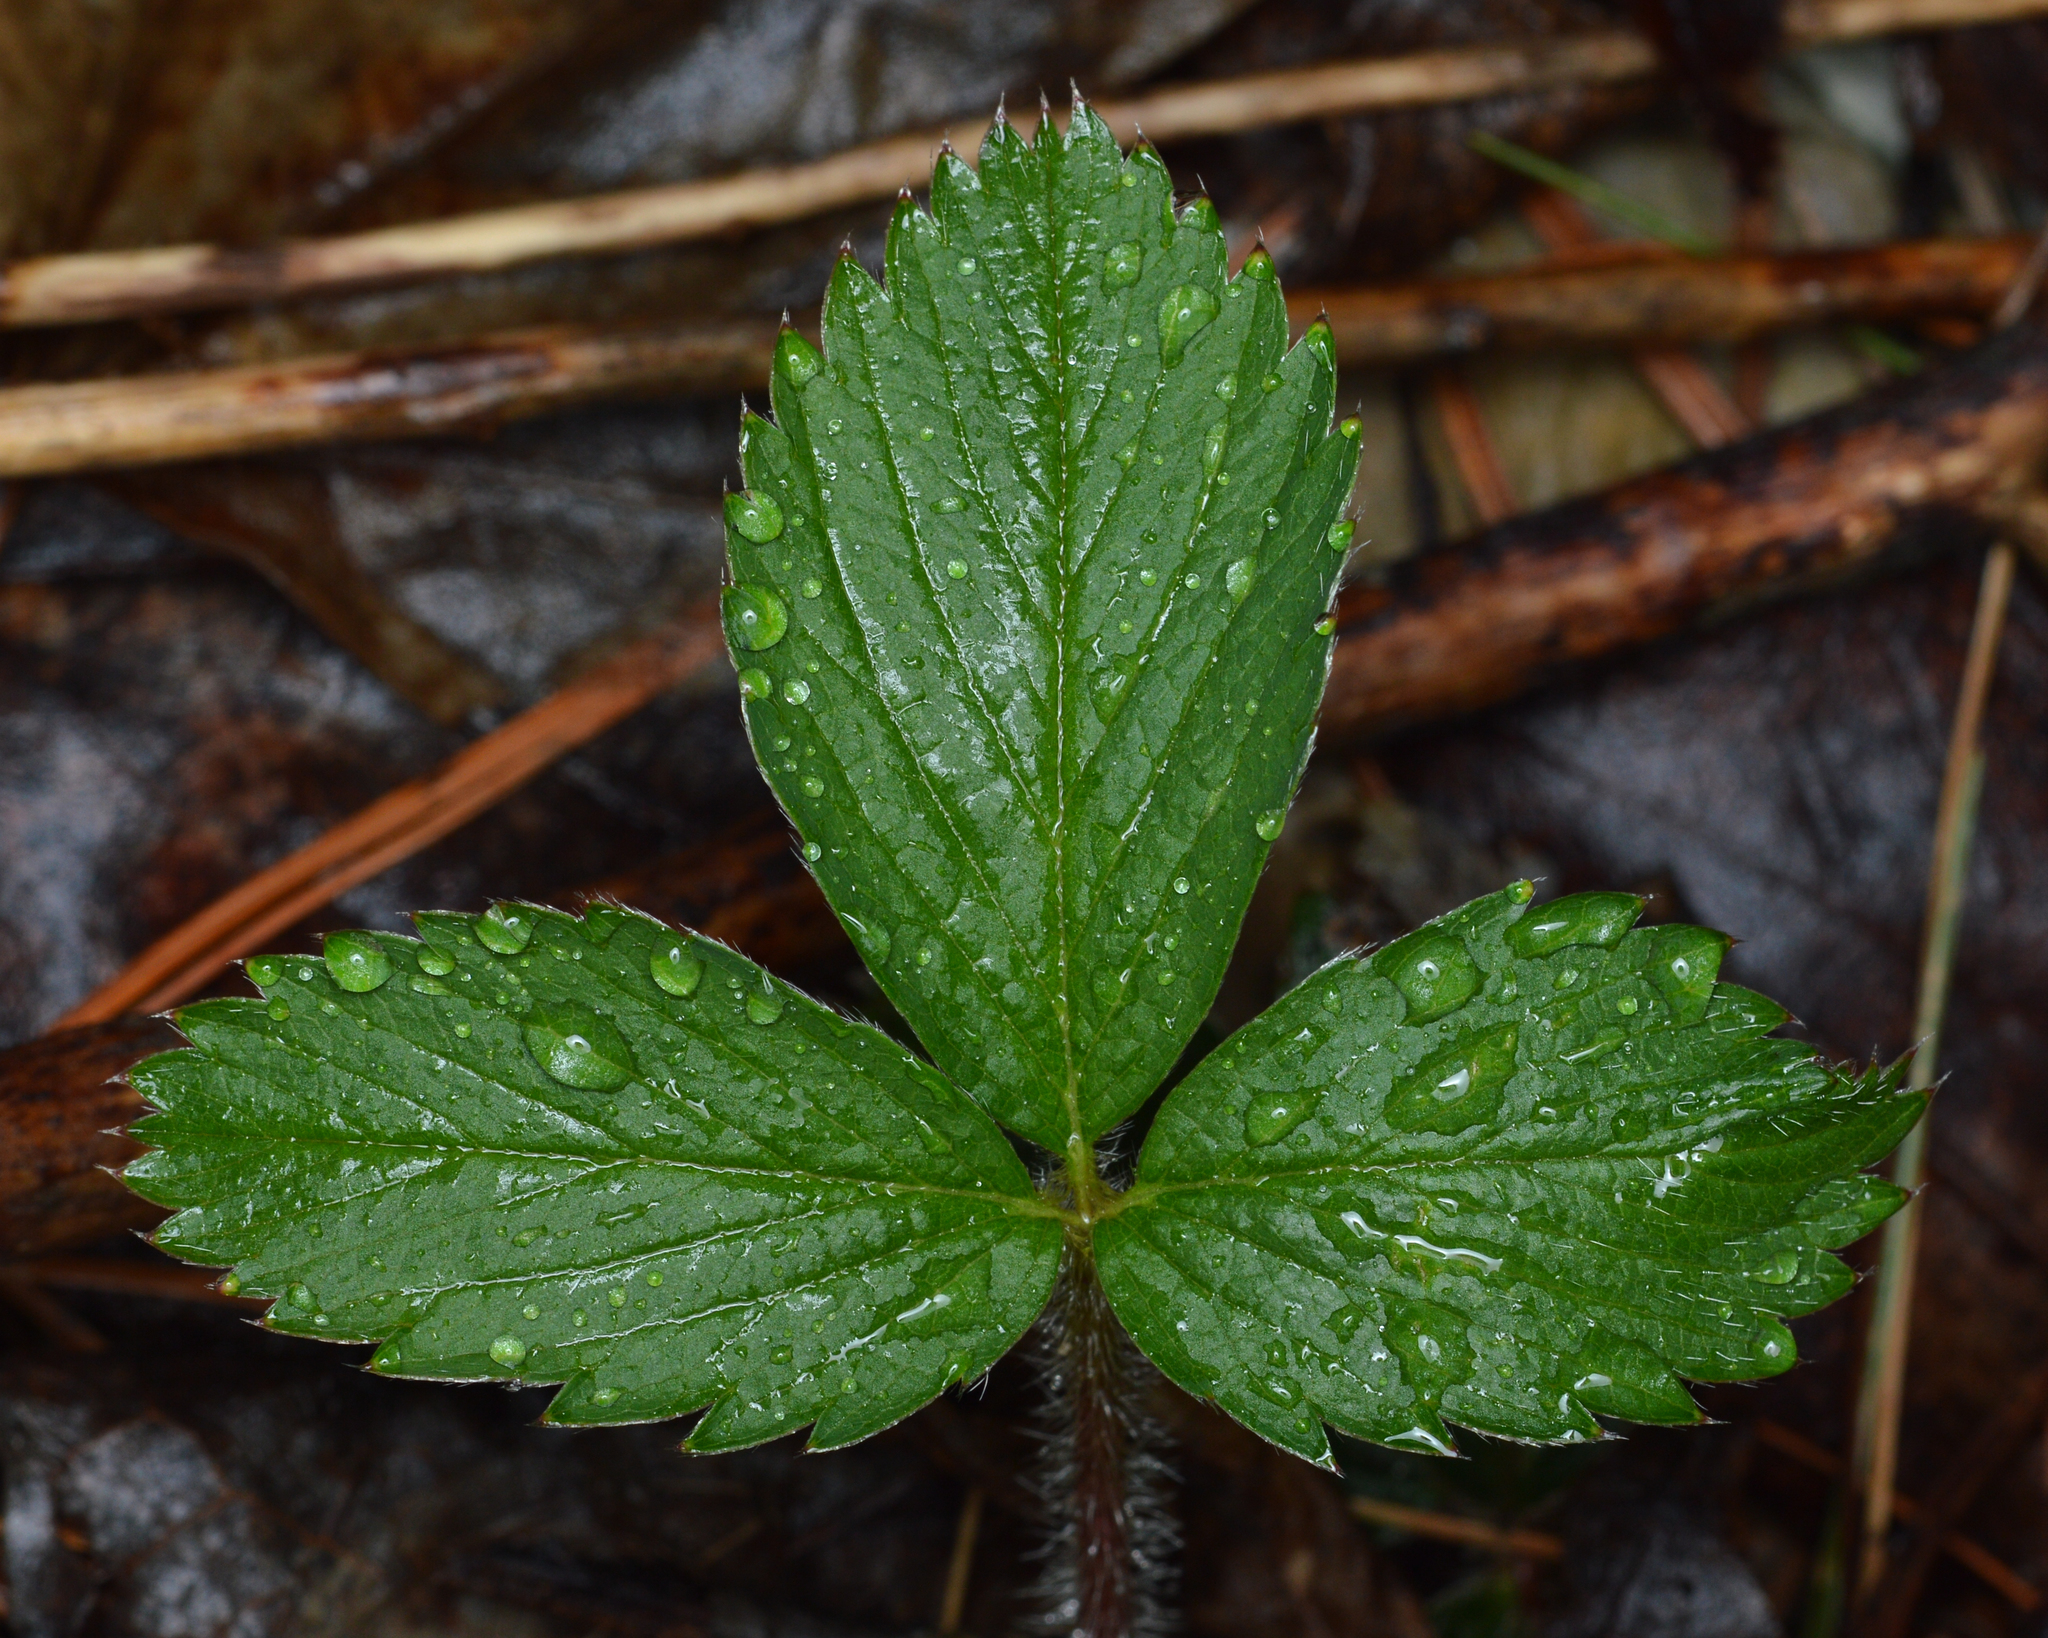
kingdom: Plantae
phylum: Tracheophyta
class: Magnoliopsida
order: Rosales
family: Rosaceae
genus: Fragaria
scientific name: Fragaria virginiana
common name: Thickleaved wild strawberry
